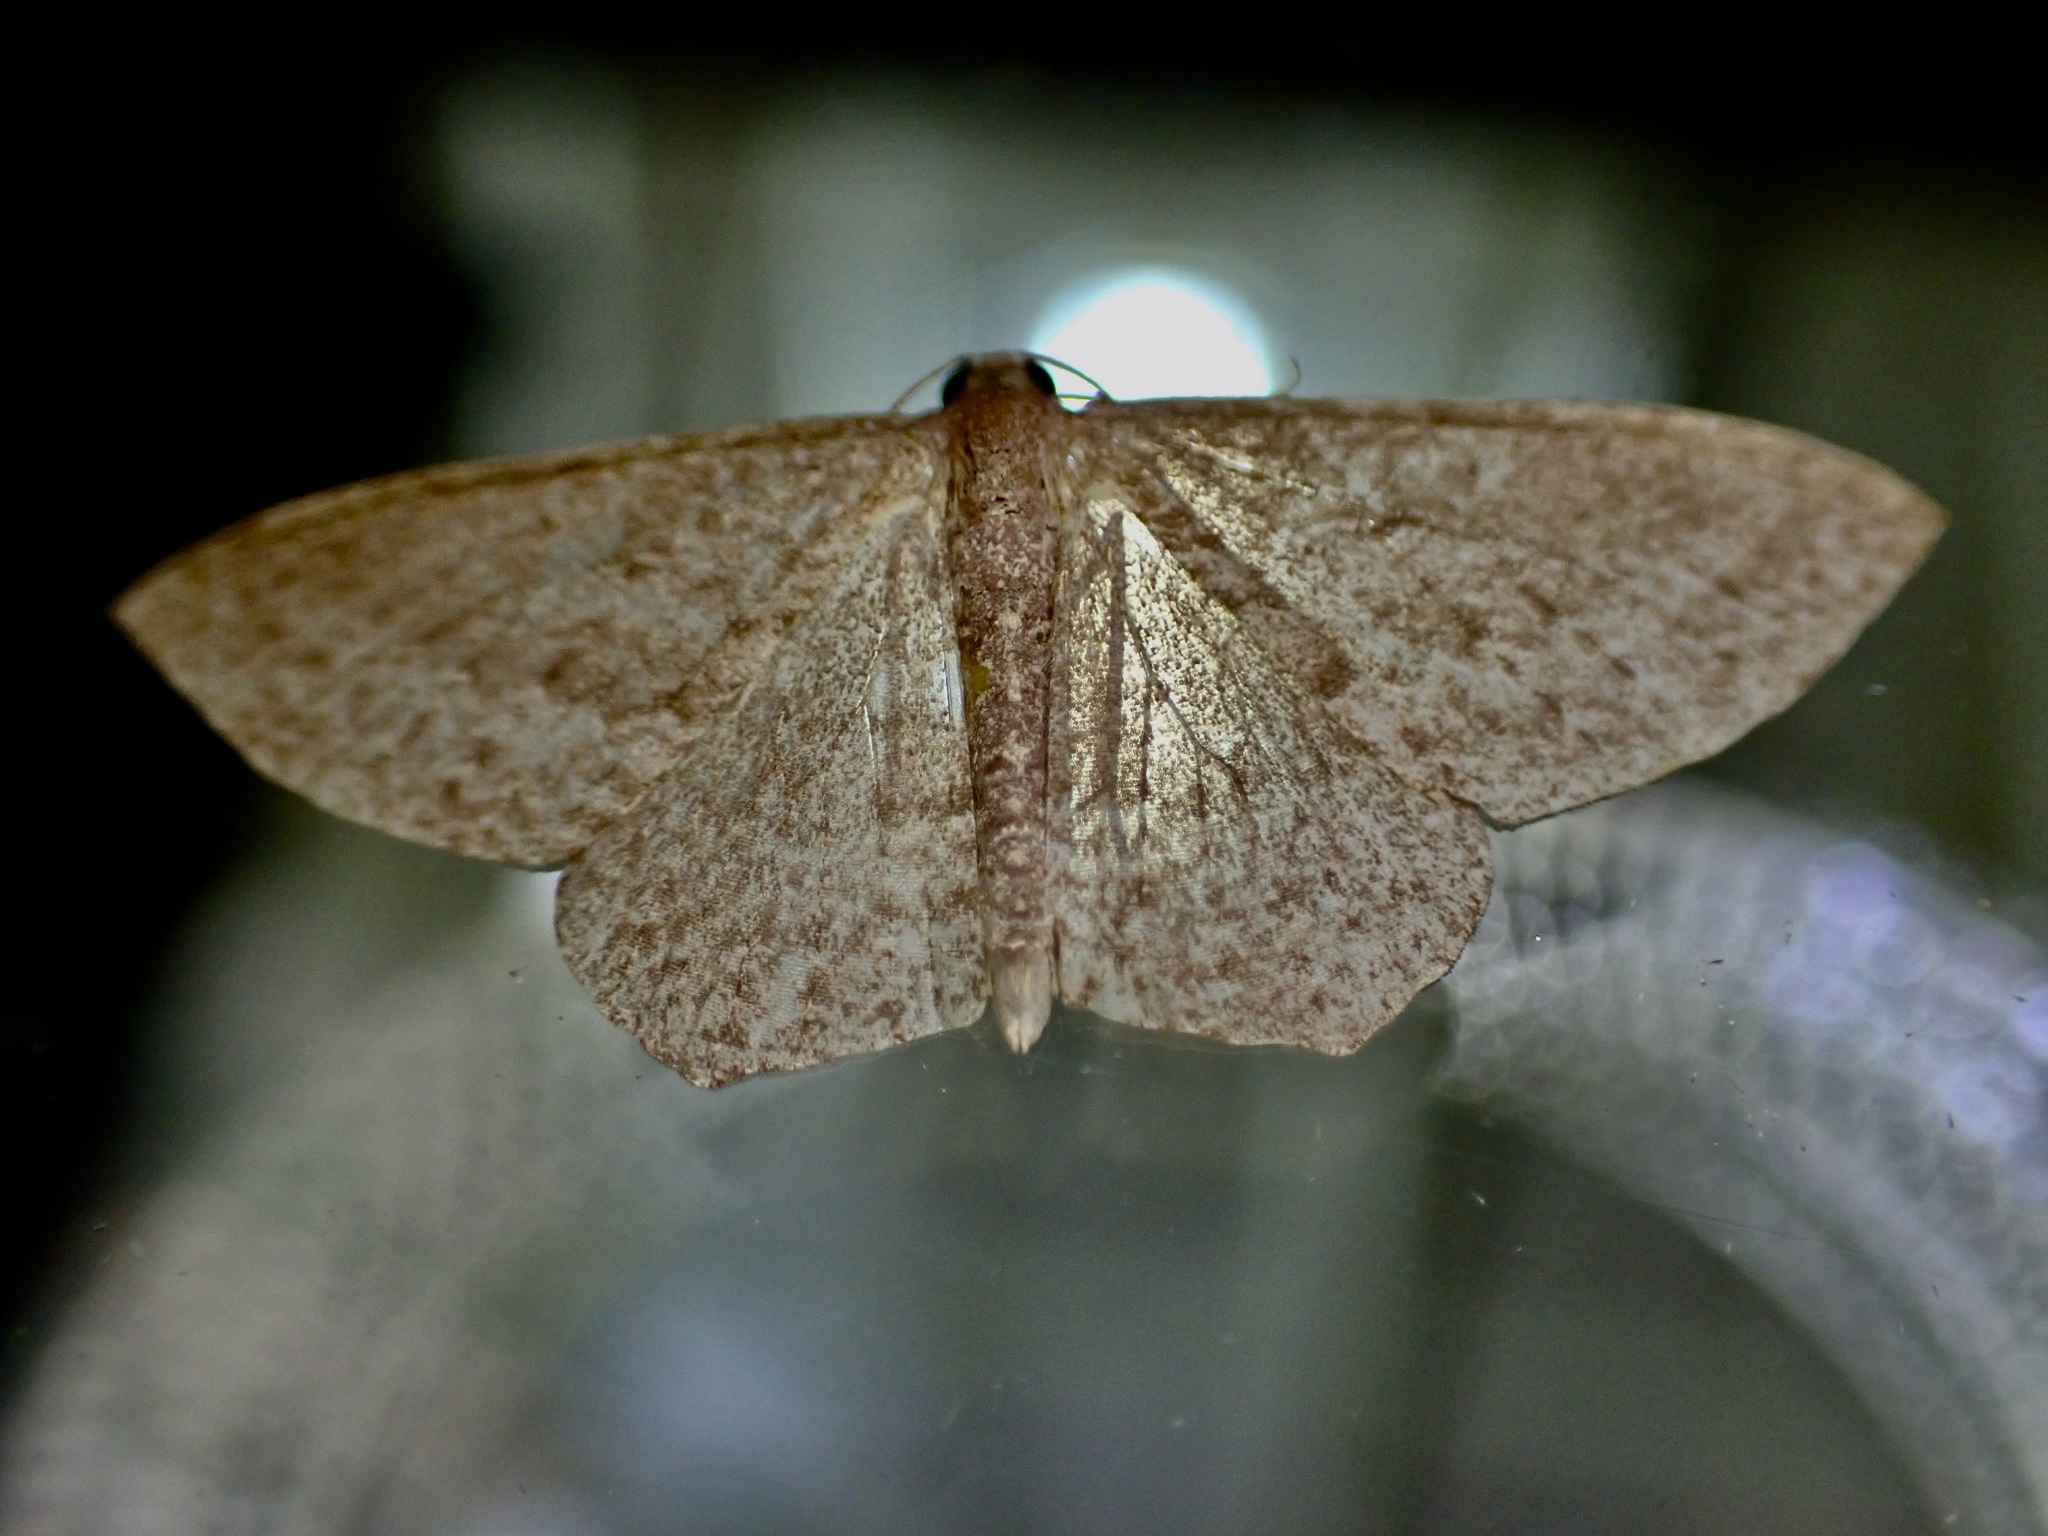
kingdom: Animalia
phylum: Arthropoda
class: Insecta
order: Lepidoptera
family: Geometridae
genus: Poecilasthena
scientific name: Poecilasthena schistaria
